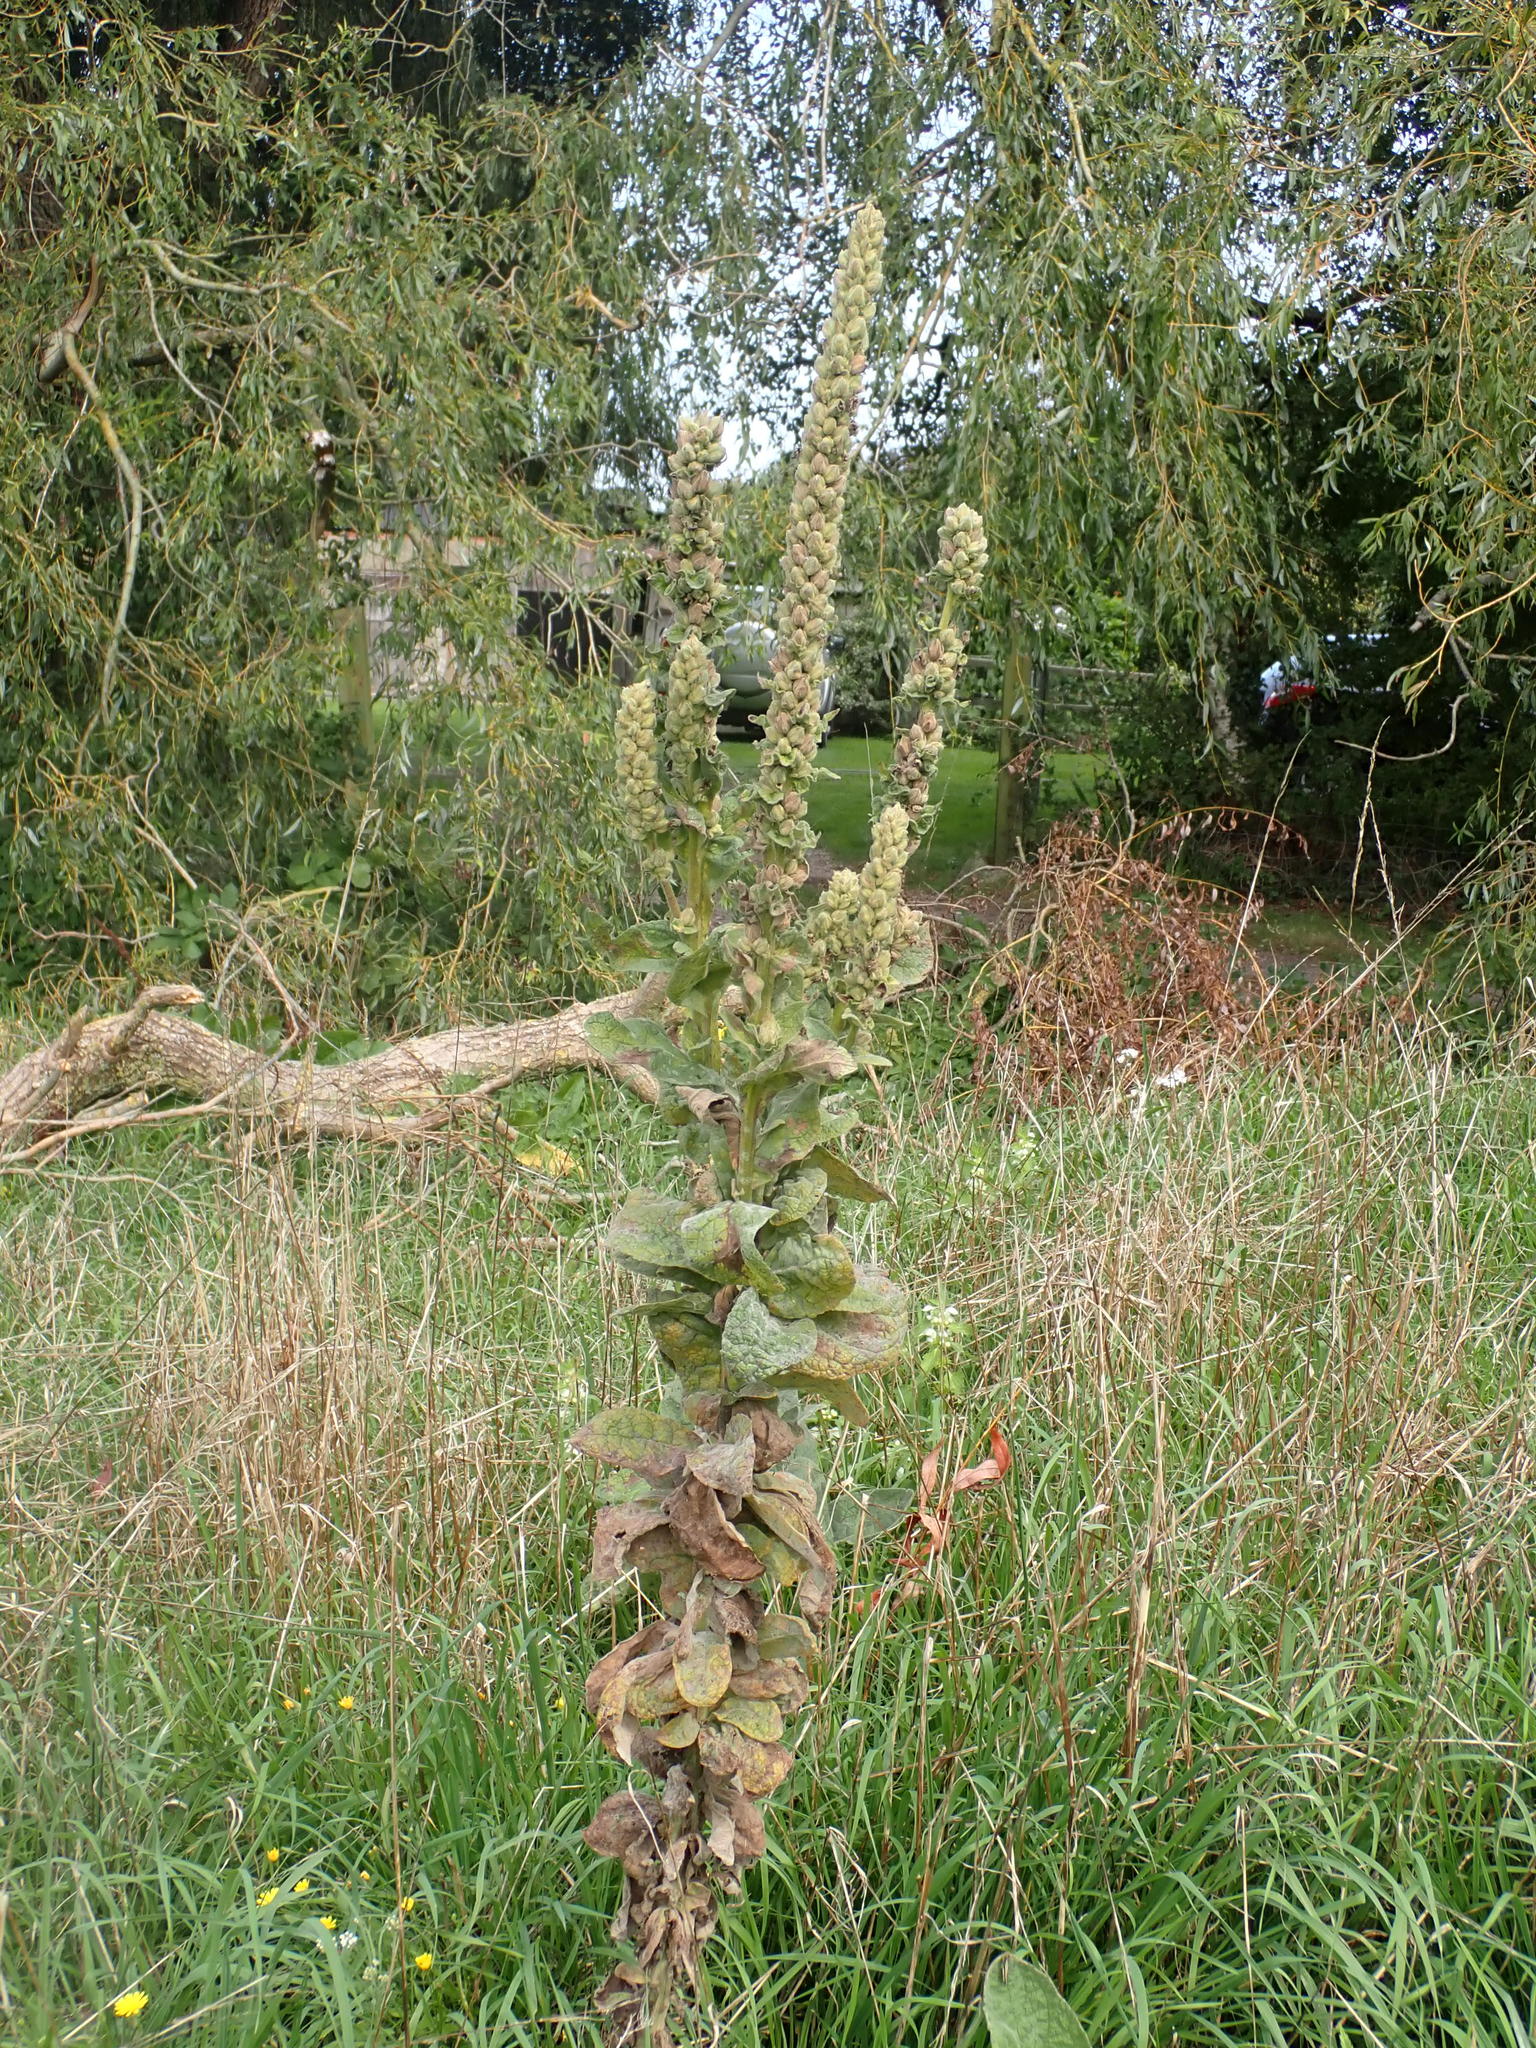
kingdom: Plantae
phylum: Tracheophyta
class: Magnoliopsida
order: Lamiales
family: Scrophulariaceae
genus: Verbascum
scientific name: Verbascum thapsus
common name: Common mullein
